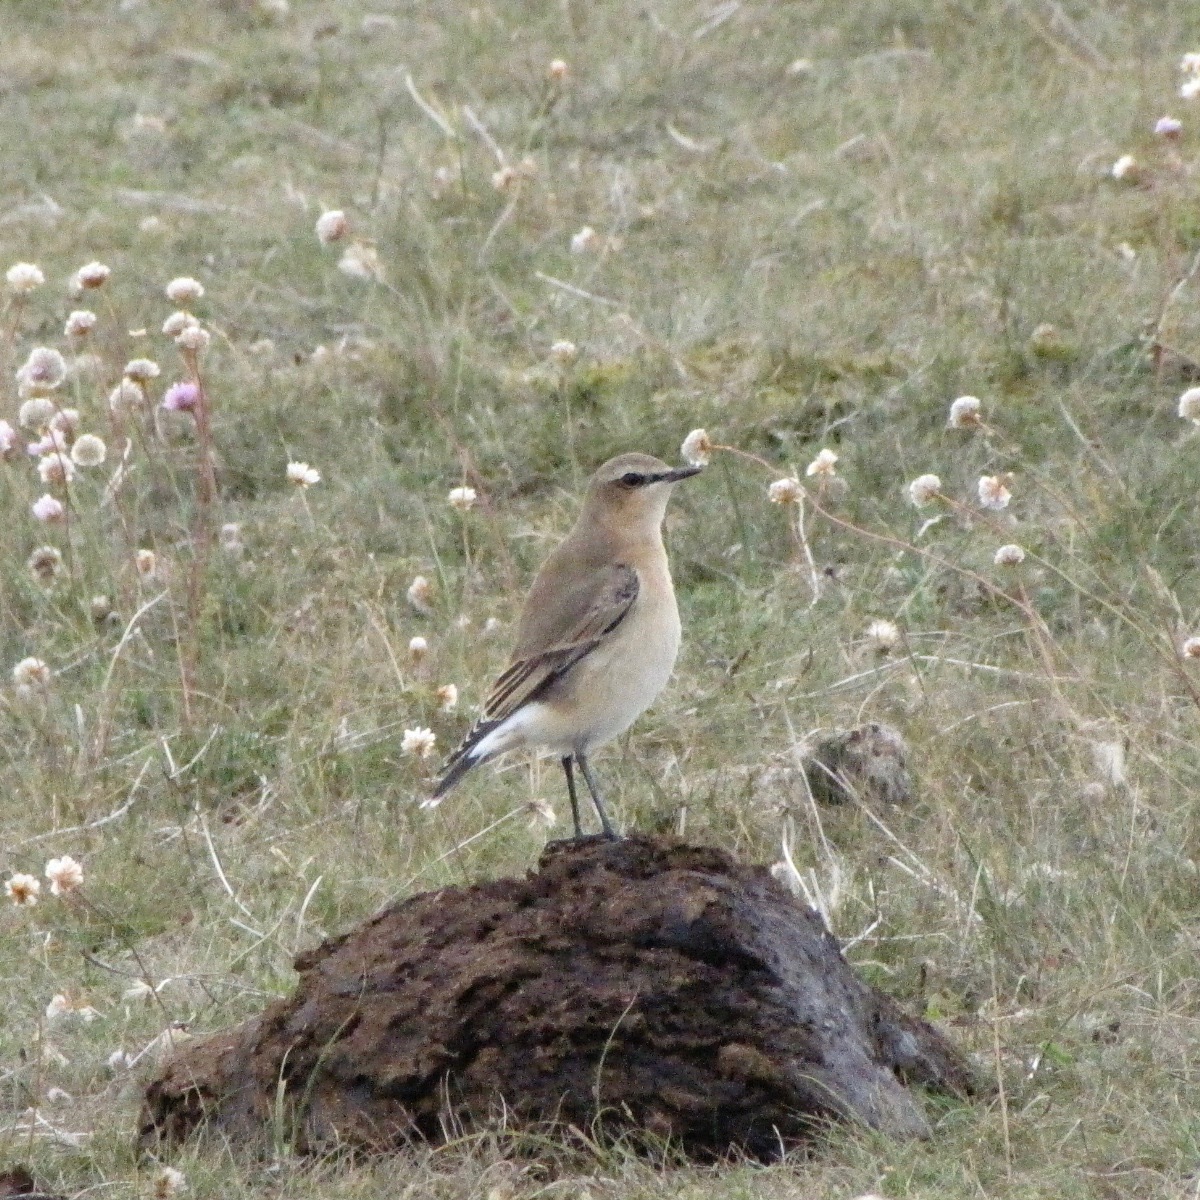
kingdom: Animalia
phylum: Chordata
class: Aves
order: Passeriformes
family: Muscicapidae
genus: Oenanthe
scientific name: Oenanthe oenanthe
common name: Northern wheatear
